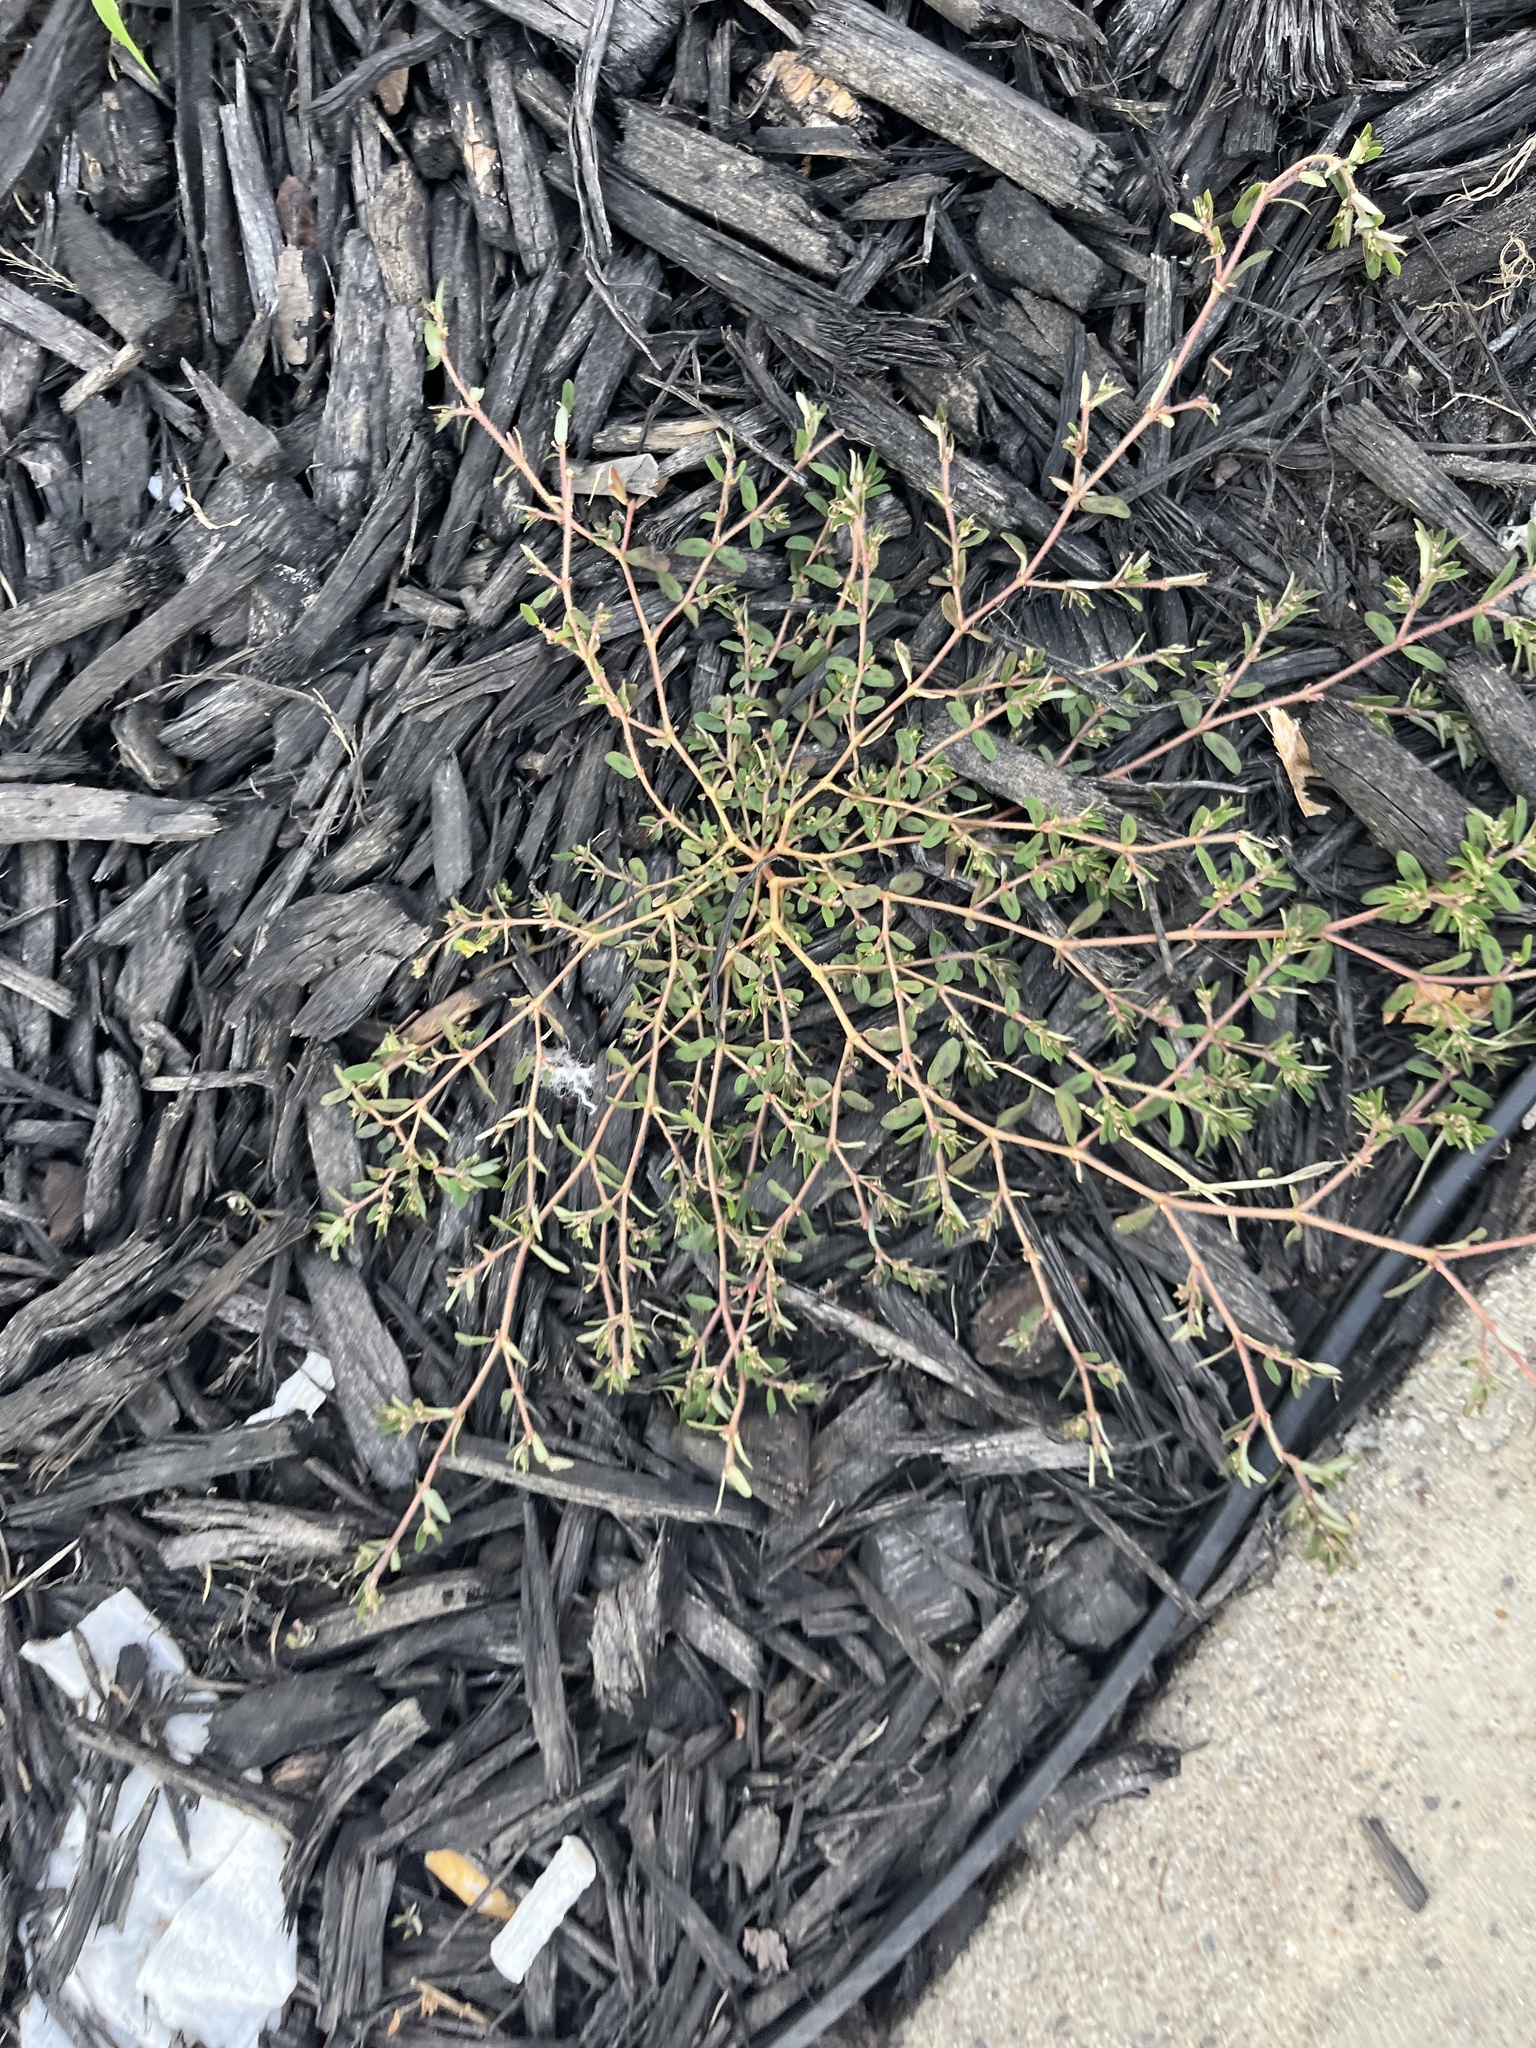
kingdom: Plantae
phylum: Tracheophyta
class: Magnoliopsida
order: Malpighiales
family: Euphorbiaceae
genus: Euphorbia
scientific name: Euphorbia maculata
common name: Spotted spurge
